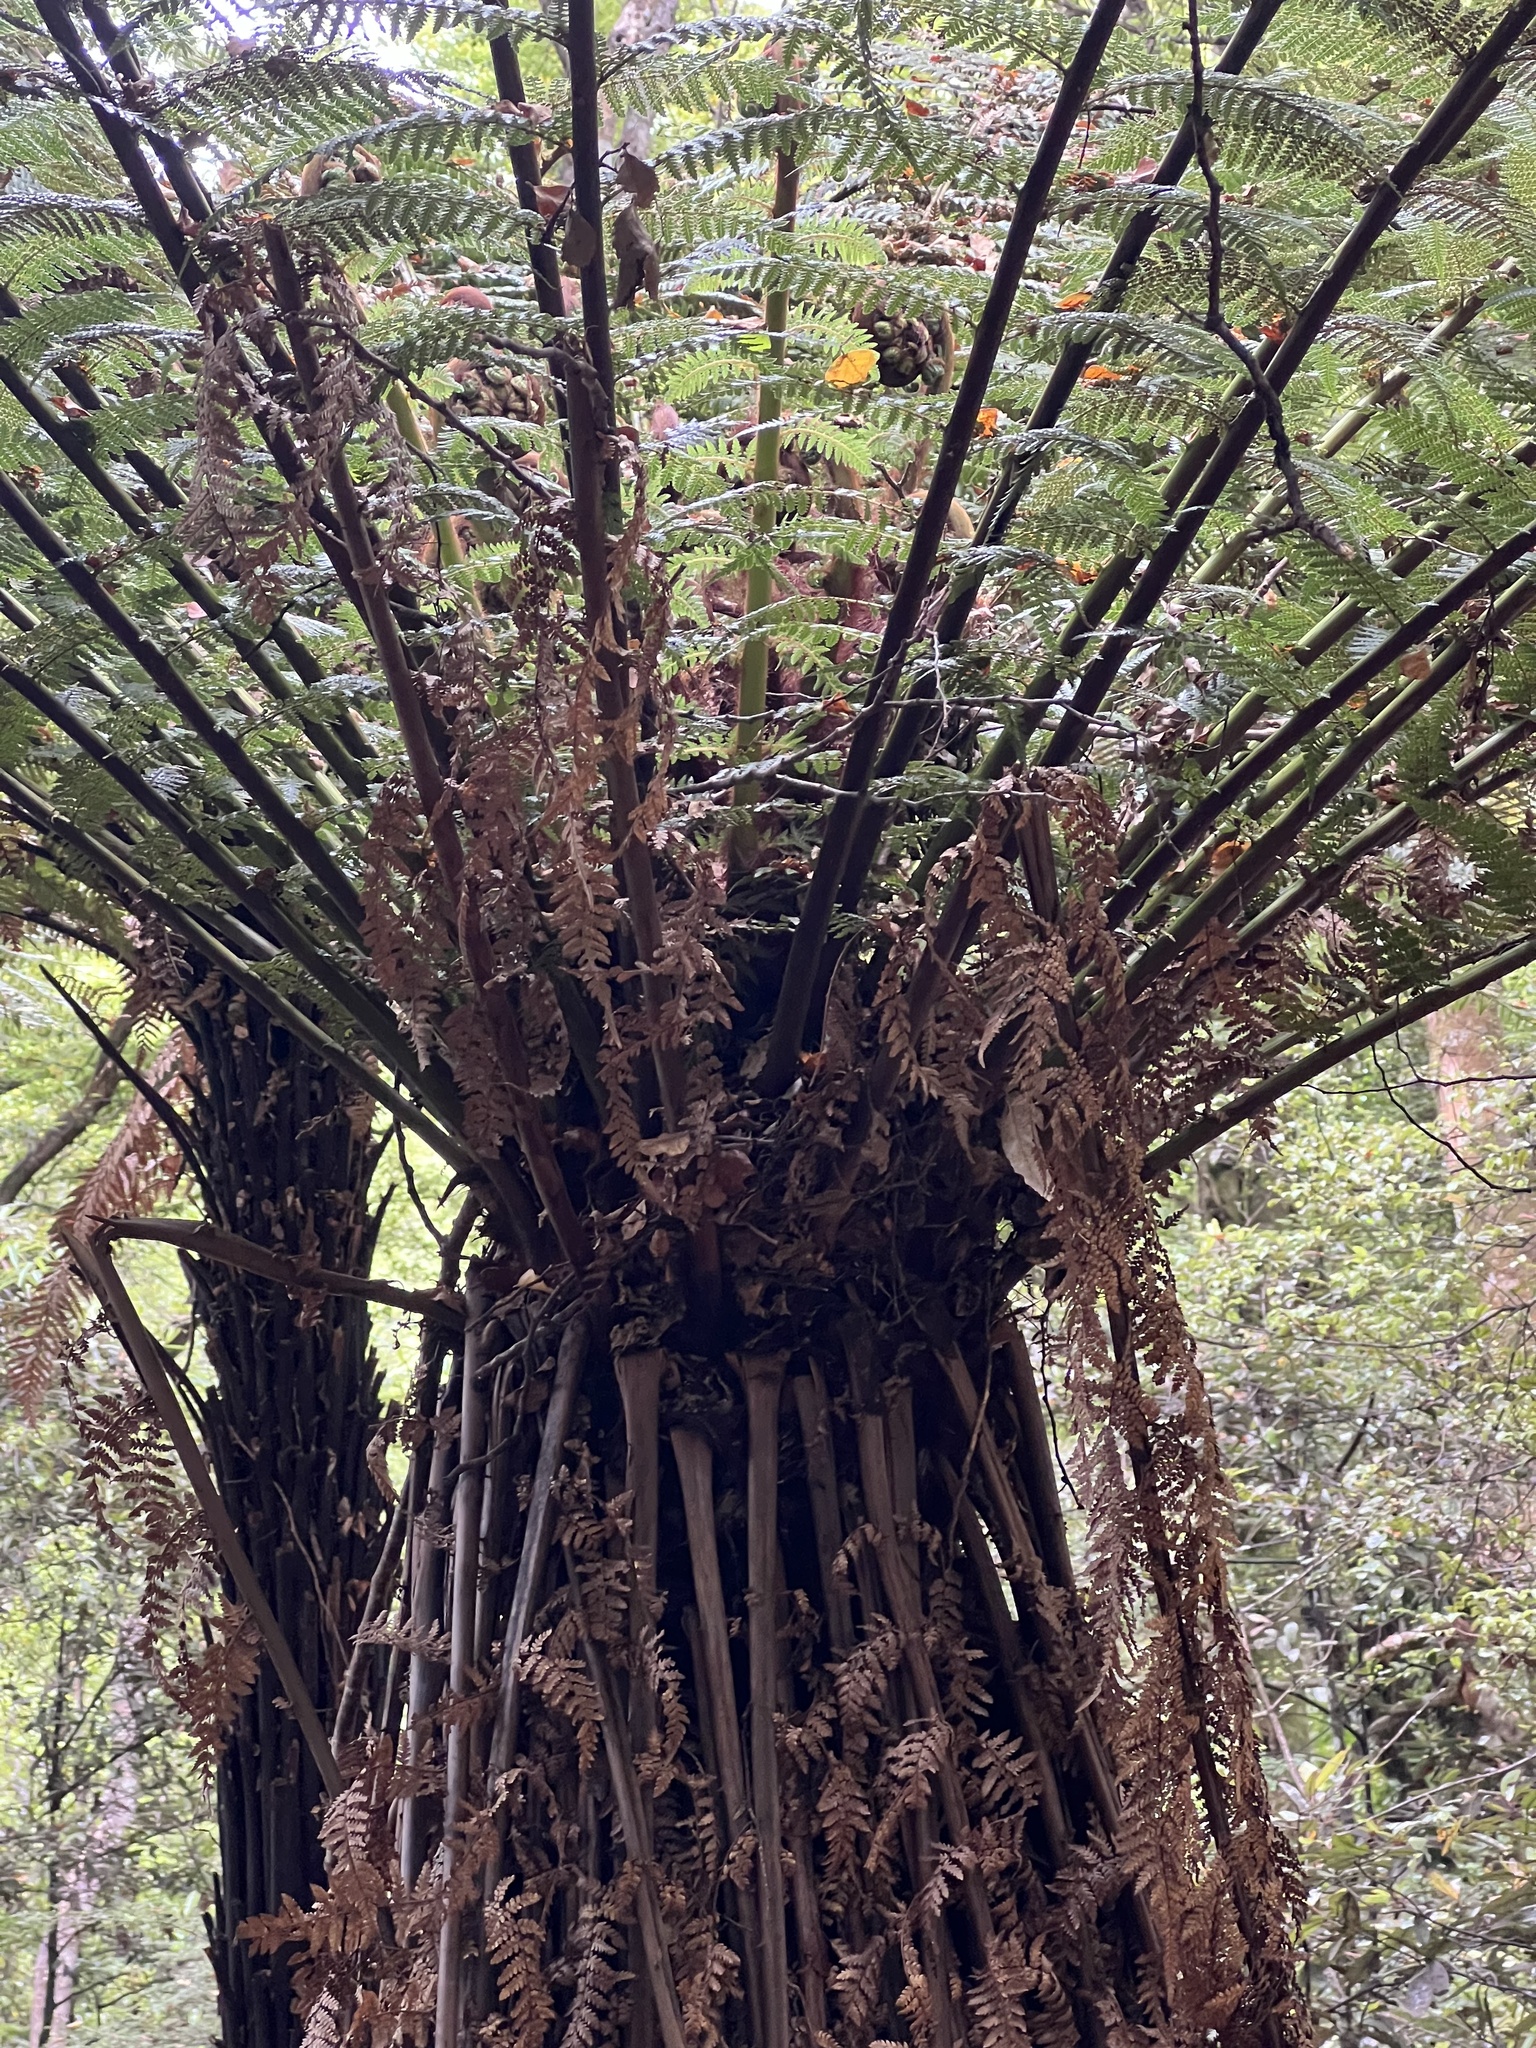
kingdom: Plantae
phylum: Tracheophyta
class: Polypodiopsida
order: Cyatheales
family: Dicksoniaceae
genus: Dicksonia
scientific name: Dicksonia fibrosa
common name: Golden tree fern
